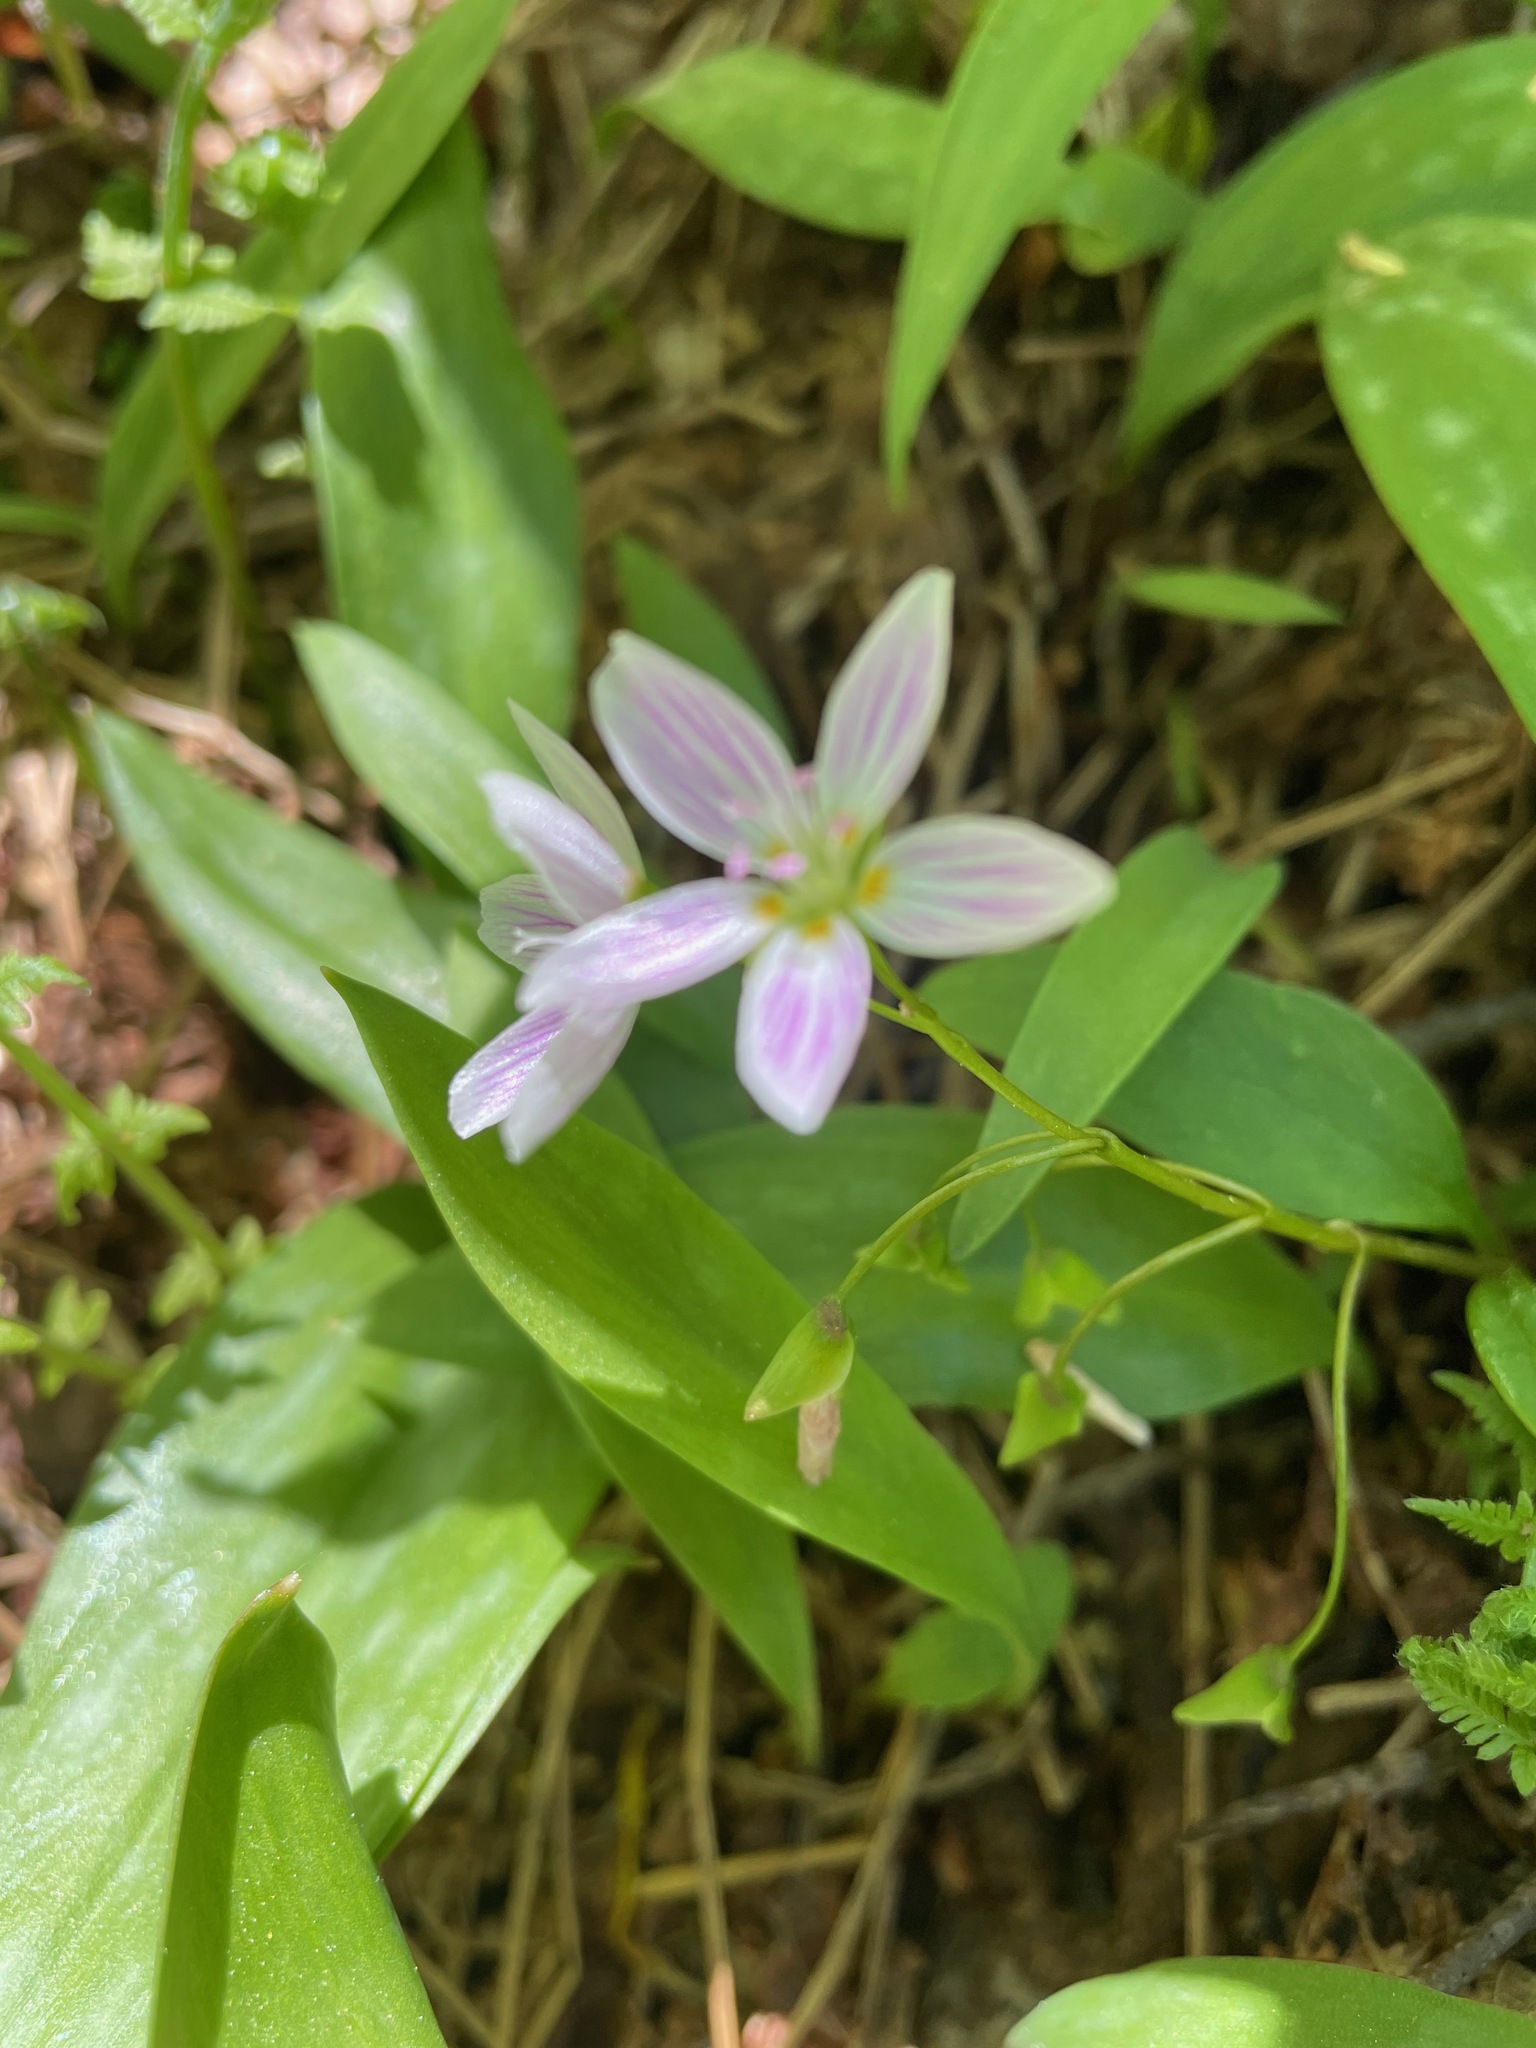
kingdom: Plantae
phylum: Tracheophyta
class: Magnoliopsida
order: Caryophyllales
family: Montiaceae
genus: Claytonia
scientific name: Claytonia caroliniana
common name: Carolina spring beauty
